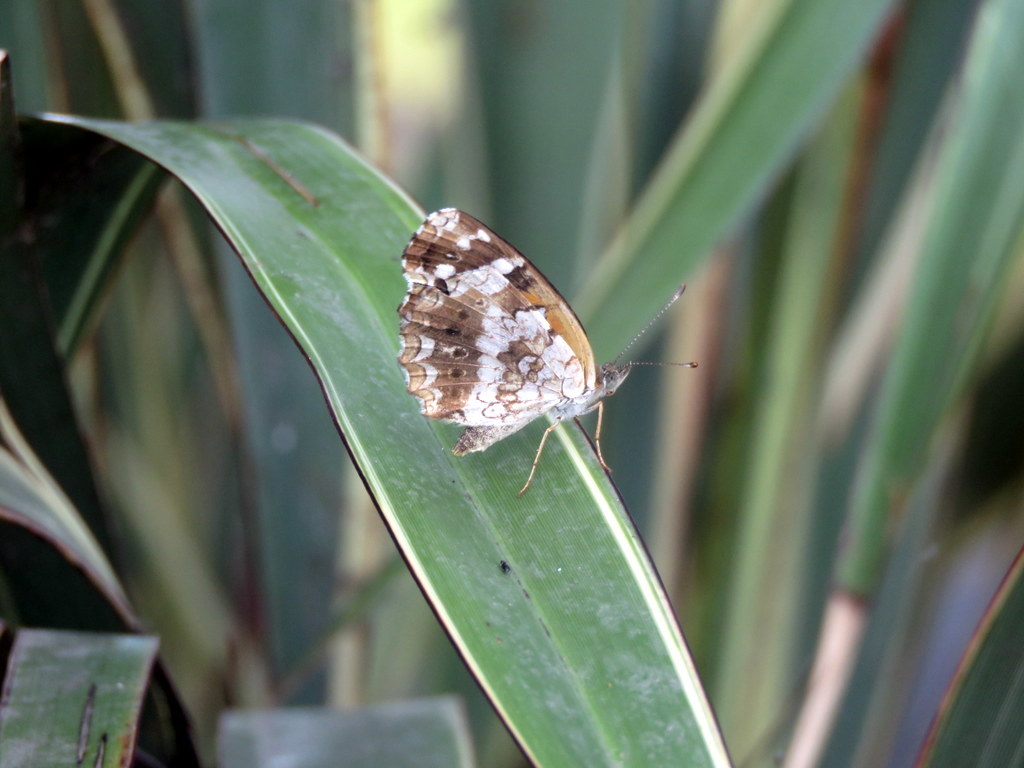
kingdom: Animalia
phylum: Arthropoda
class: Insecta
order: Lepidoptera
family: Nymphalidae
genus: Ortilia
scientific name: Ortilia ithra
